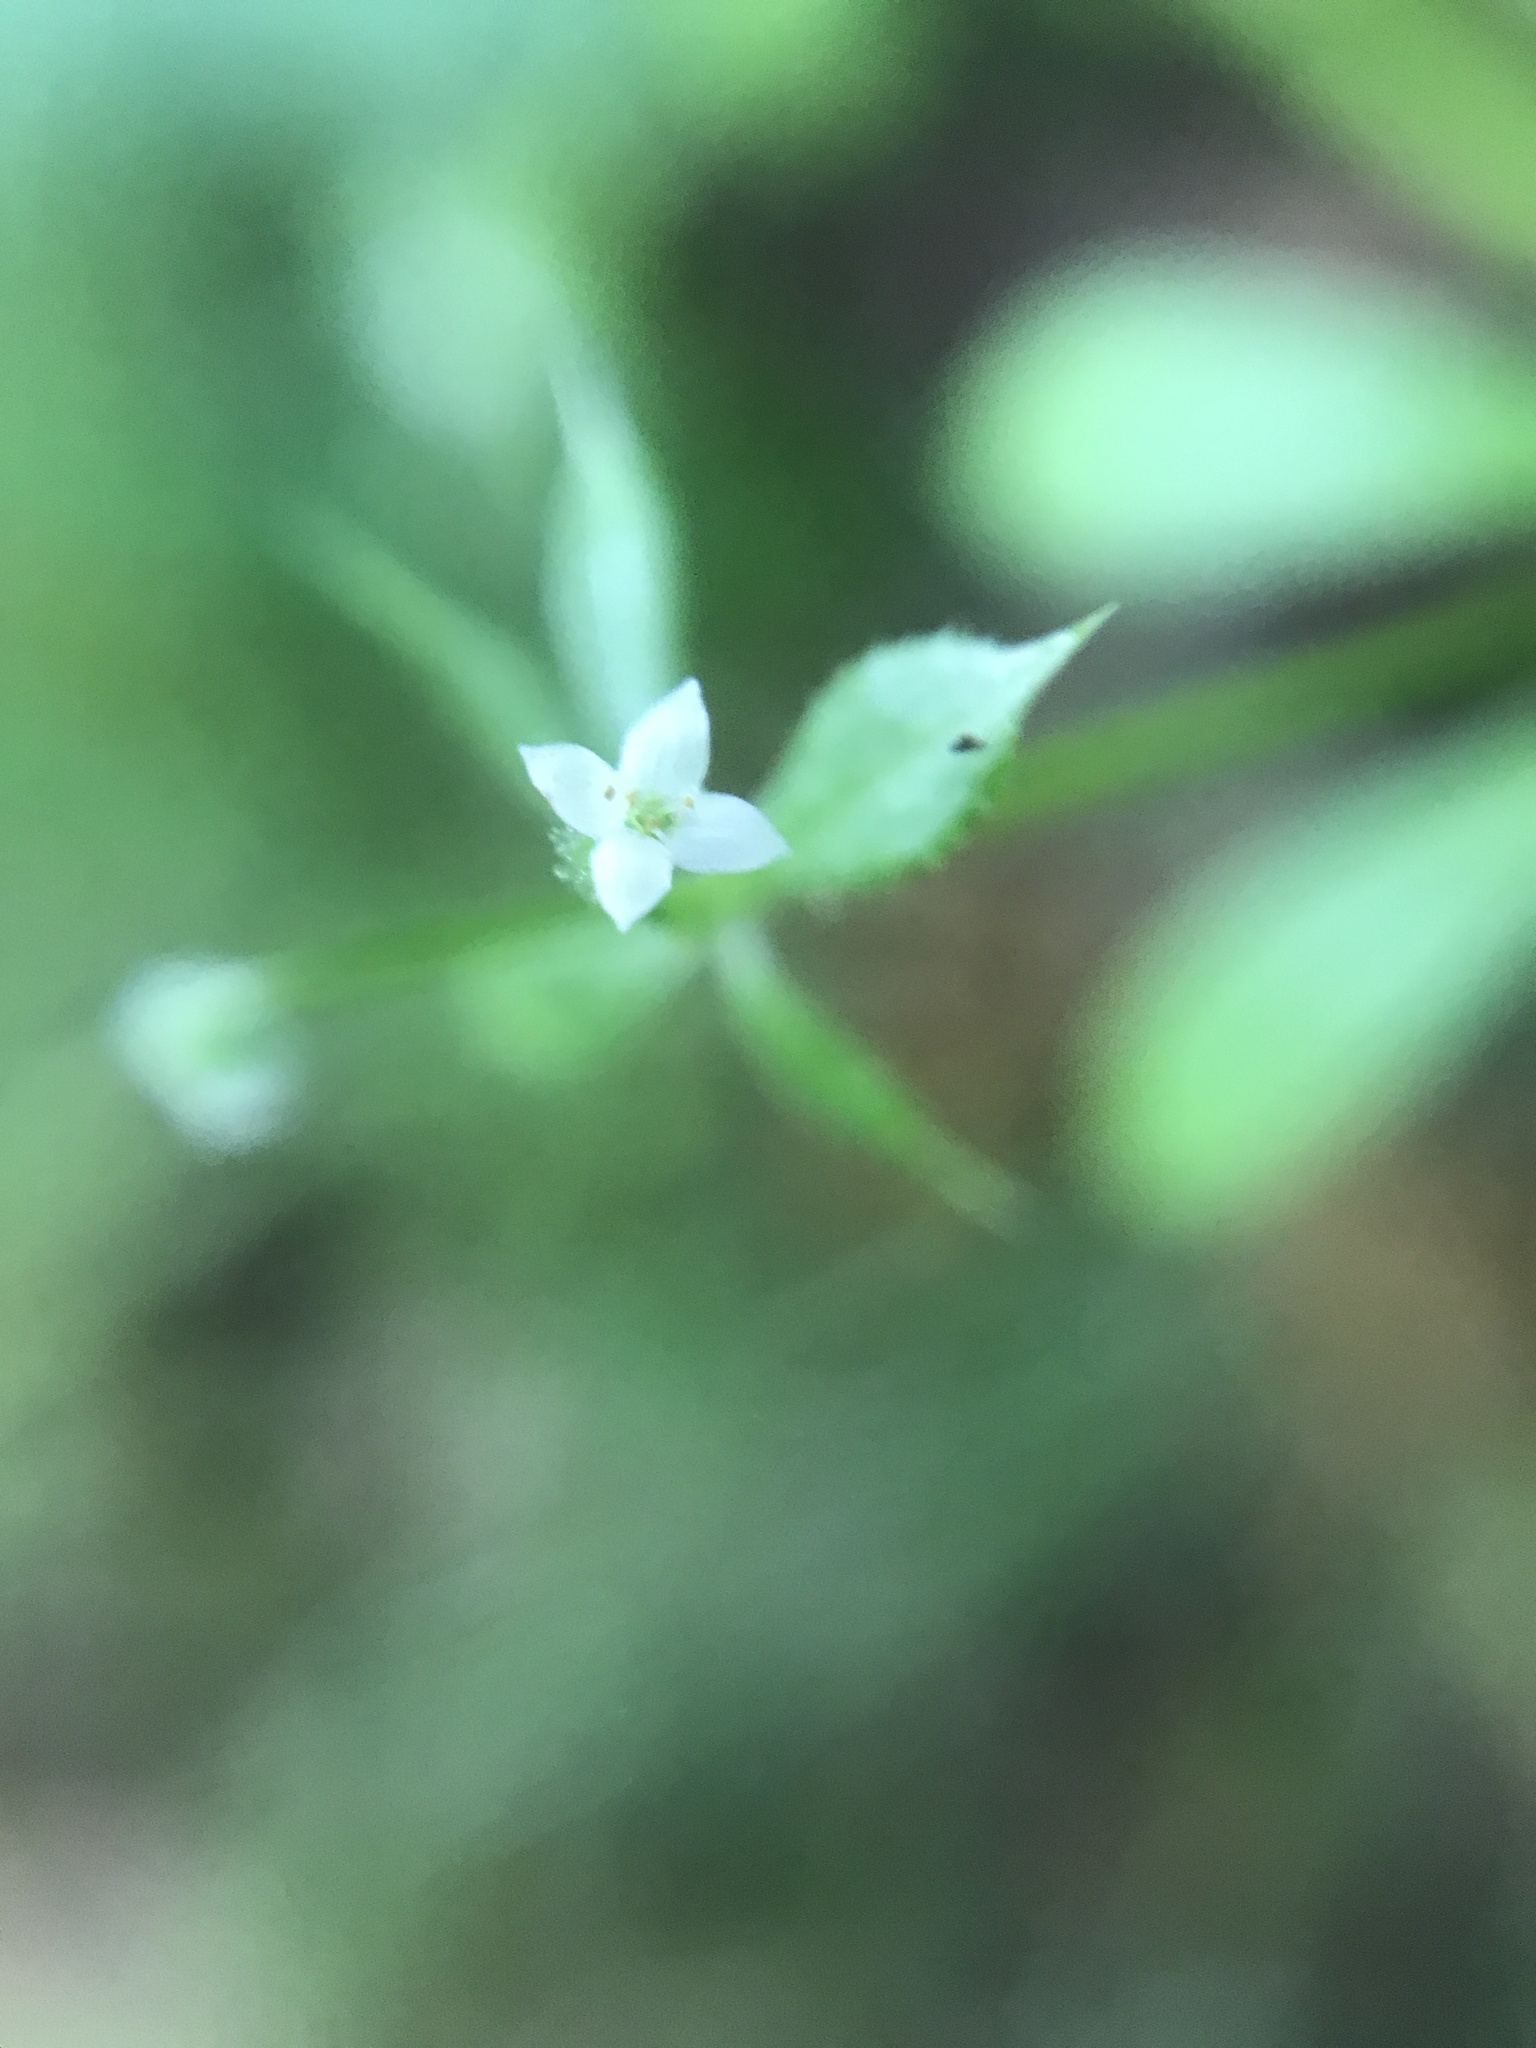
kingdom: Plantae
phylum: Tracheophyta
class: Magnoliopsida
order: Gentianales
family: Rubiaceae
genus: Galium
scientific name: Galium aparine
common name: Cleavers
